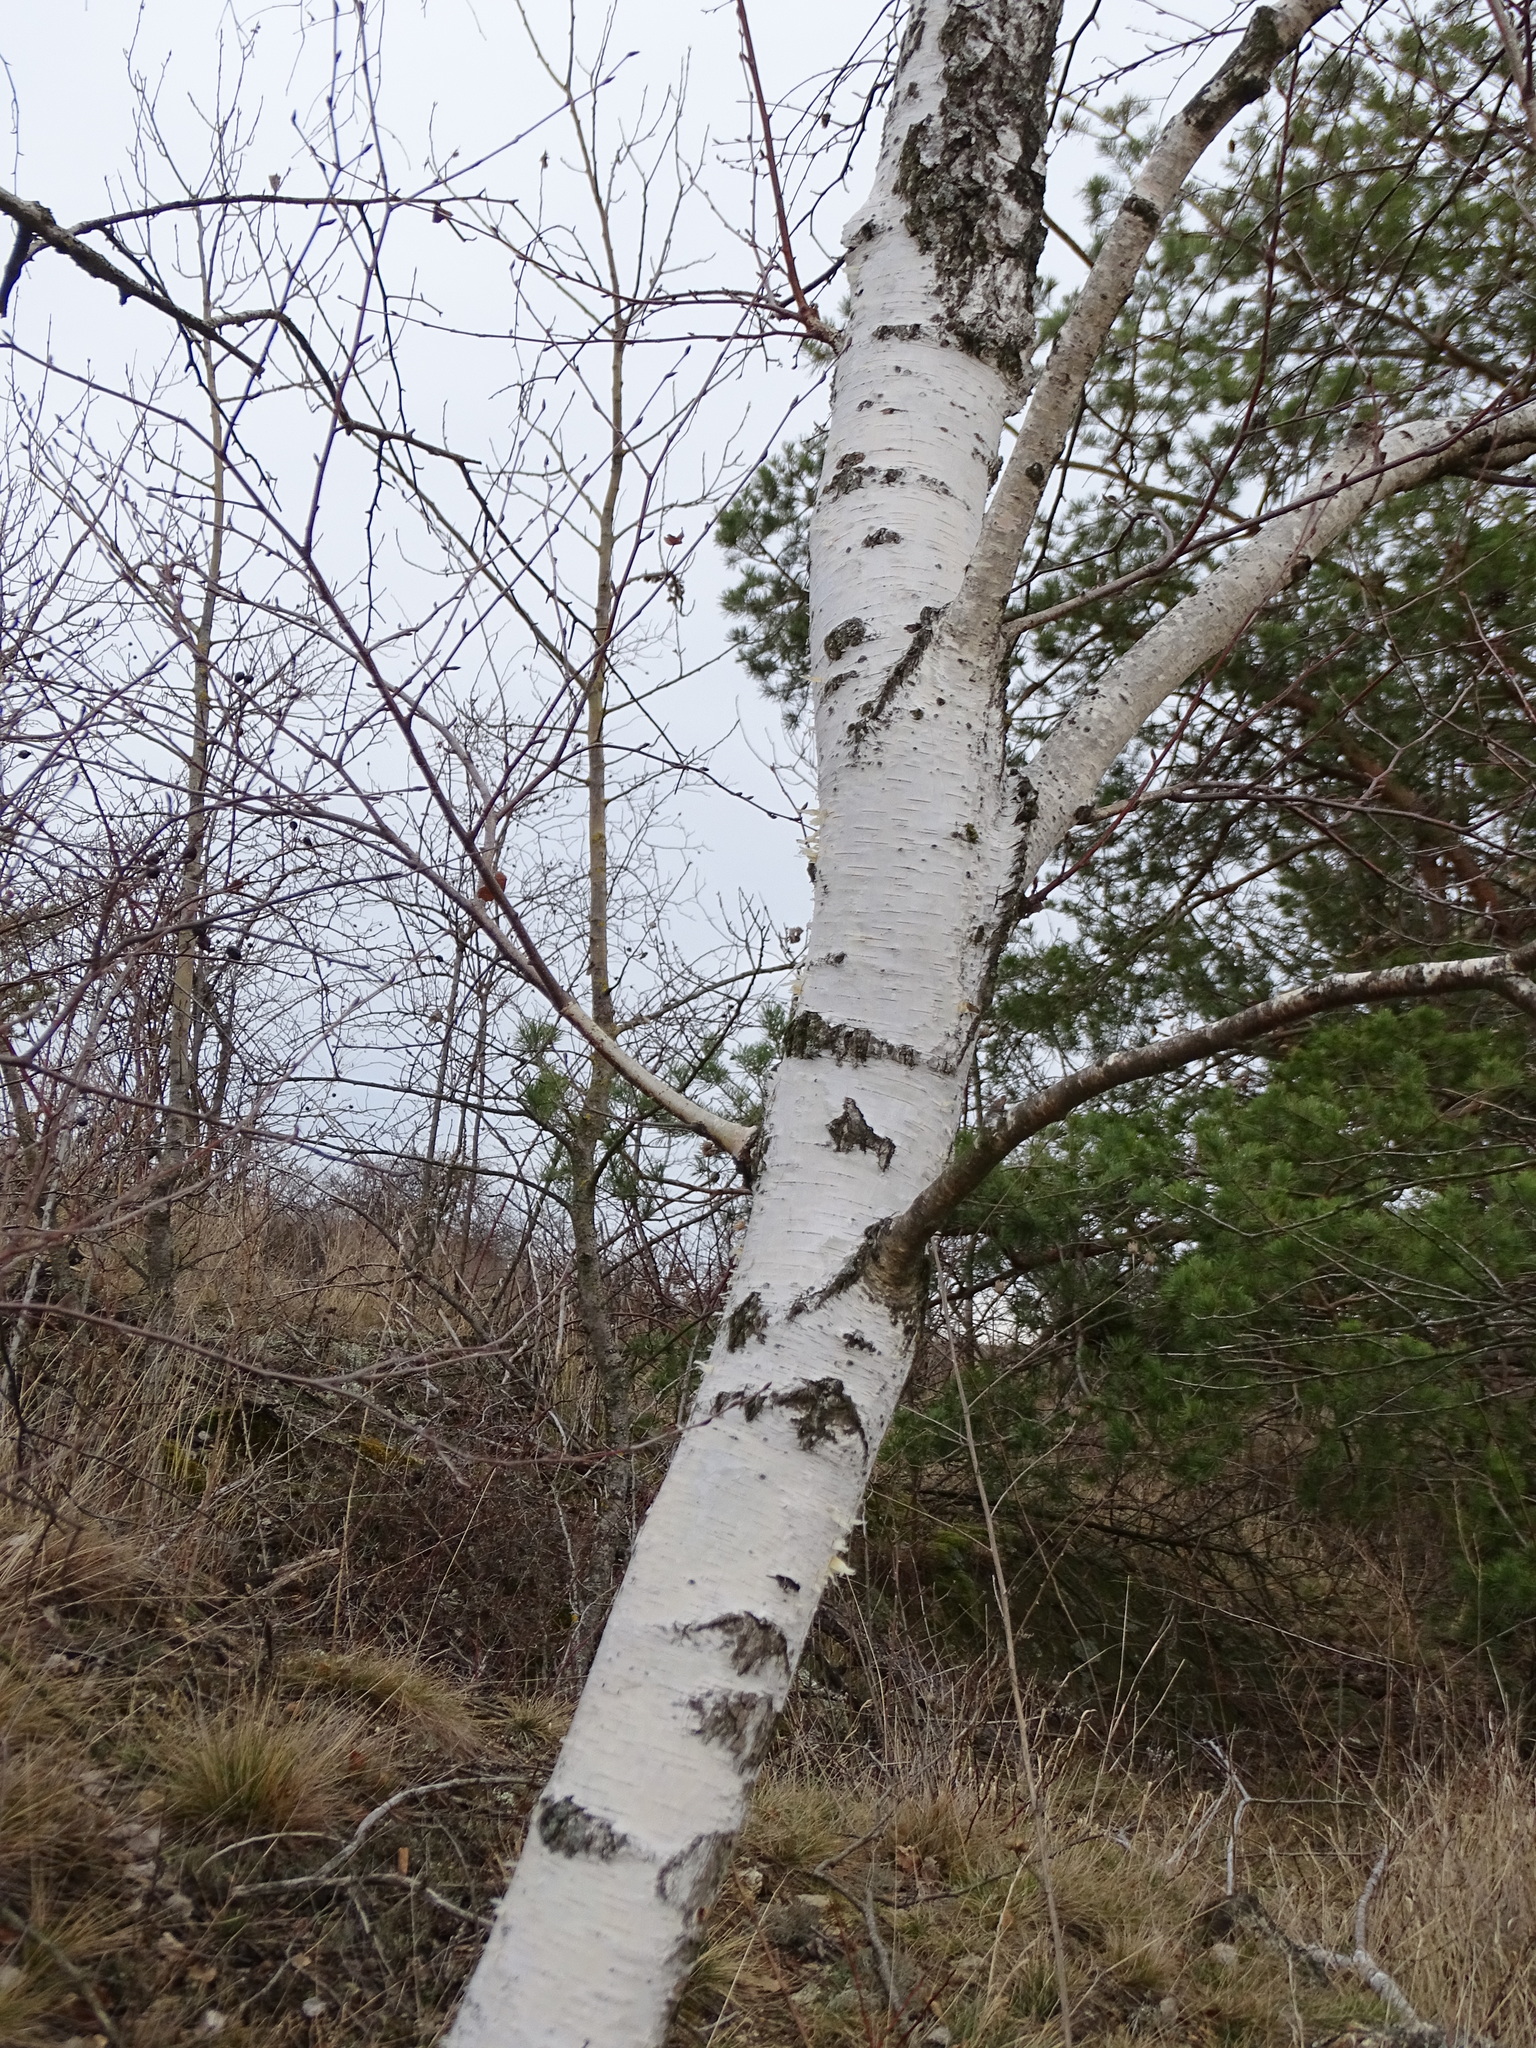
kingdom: Plantae
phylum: Tracheophyta
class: Magnoliopsida
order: Fagales
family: Betulaceae
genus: Betula
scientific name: Betula pendula
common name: Silver birch
